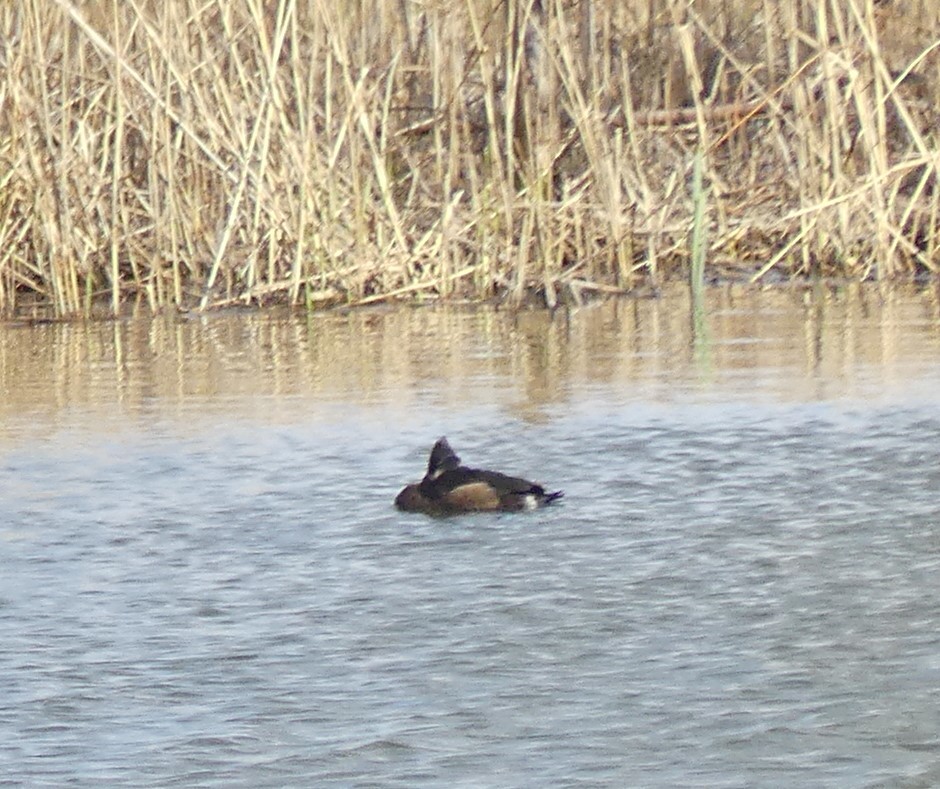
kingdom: Animalia
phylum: Chordata
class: Aves
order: Anseriformes
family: Anatidae
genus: Aythya
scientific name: Aythya fuligula
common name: Tufted duck
